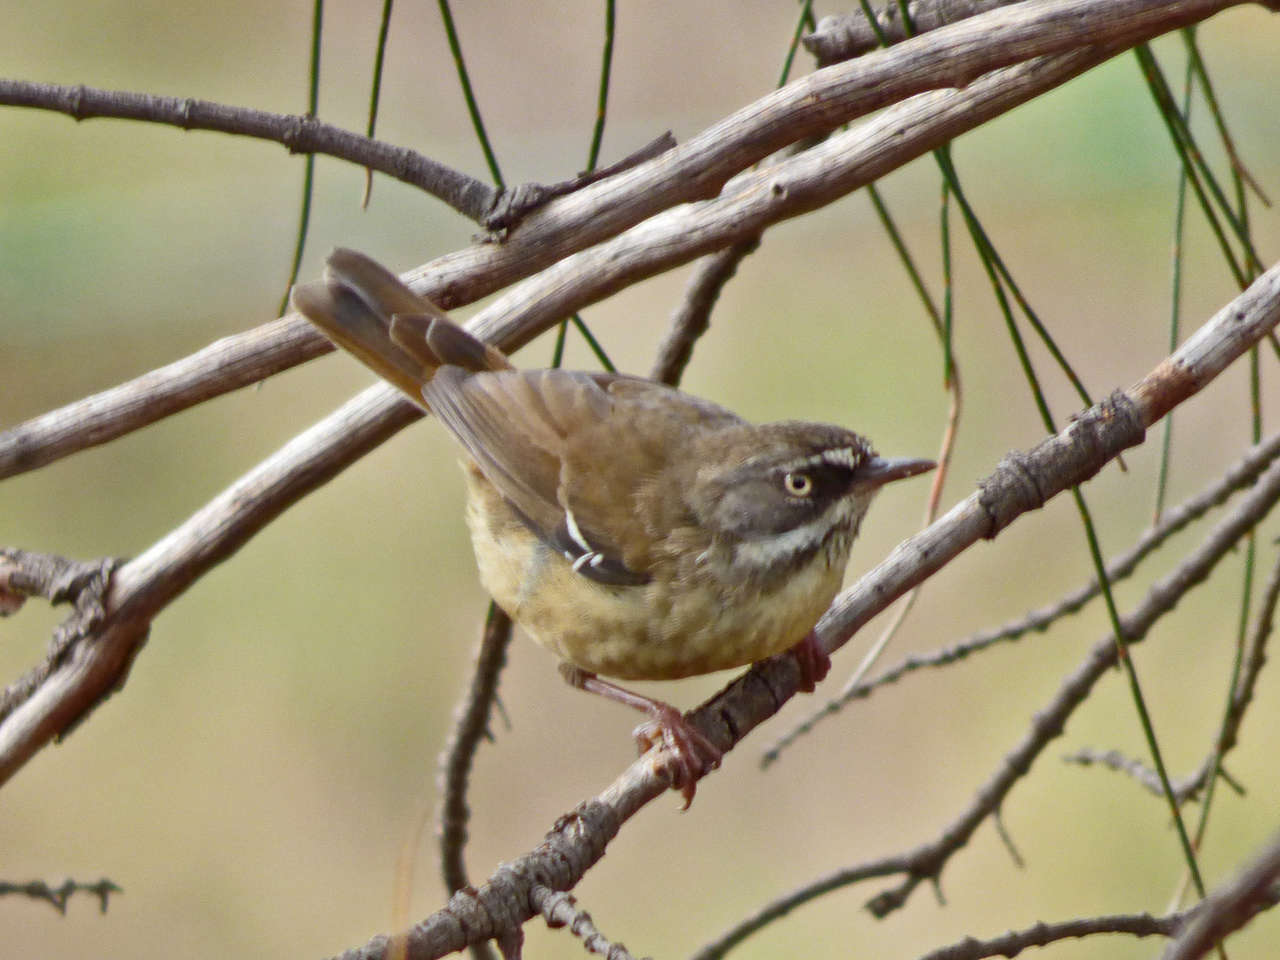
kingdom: Animalia
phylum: Chordata
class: Aves
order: Passeriformes
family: Acanthizidae
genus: Sericornis
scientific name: Sericornis frontalis
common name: White-browed scrubwren
